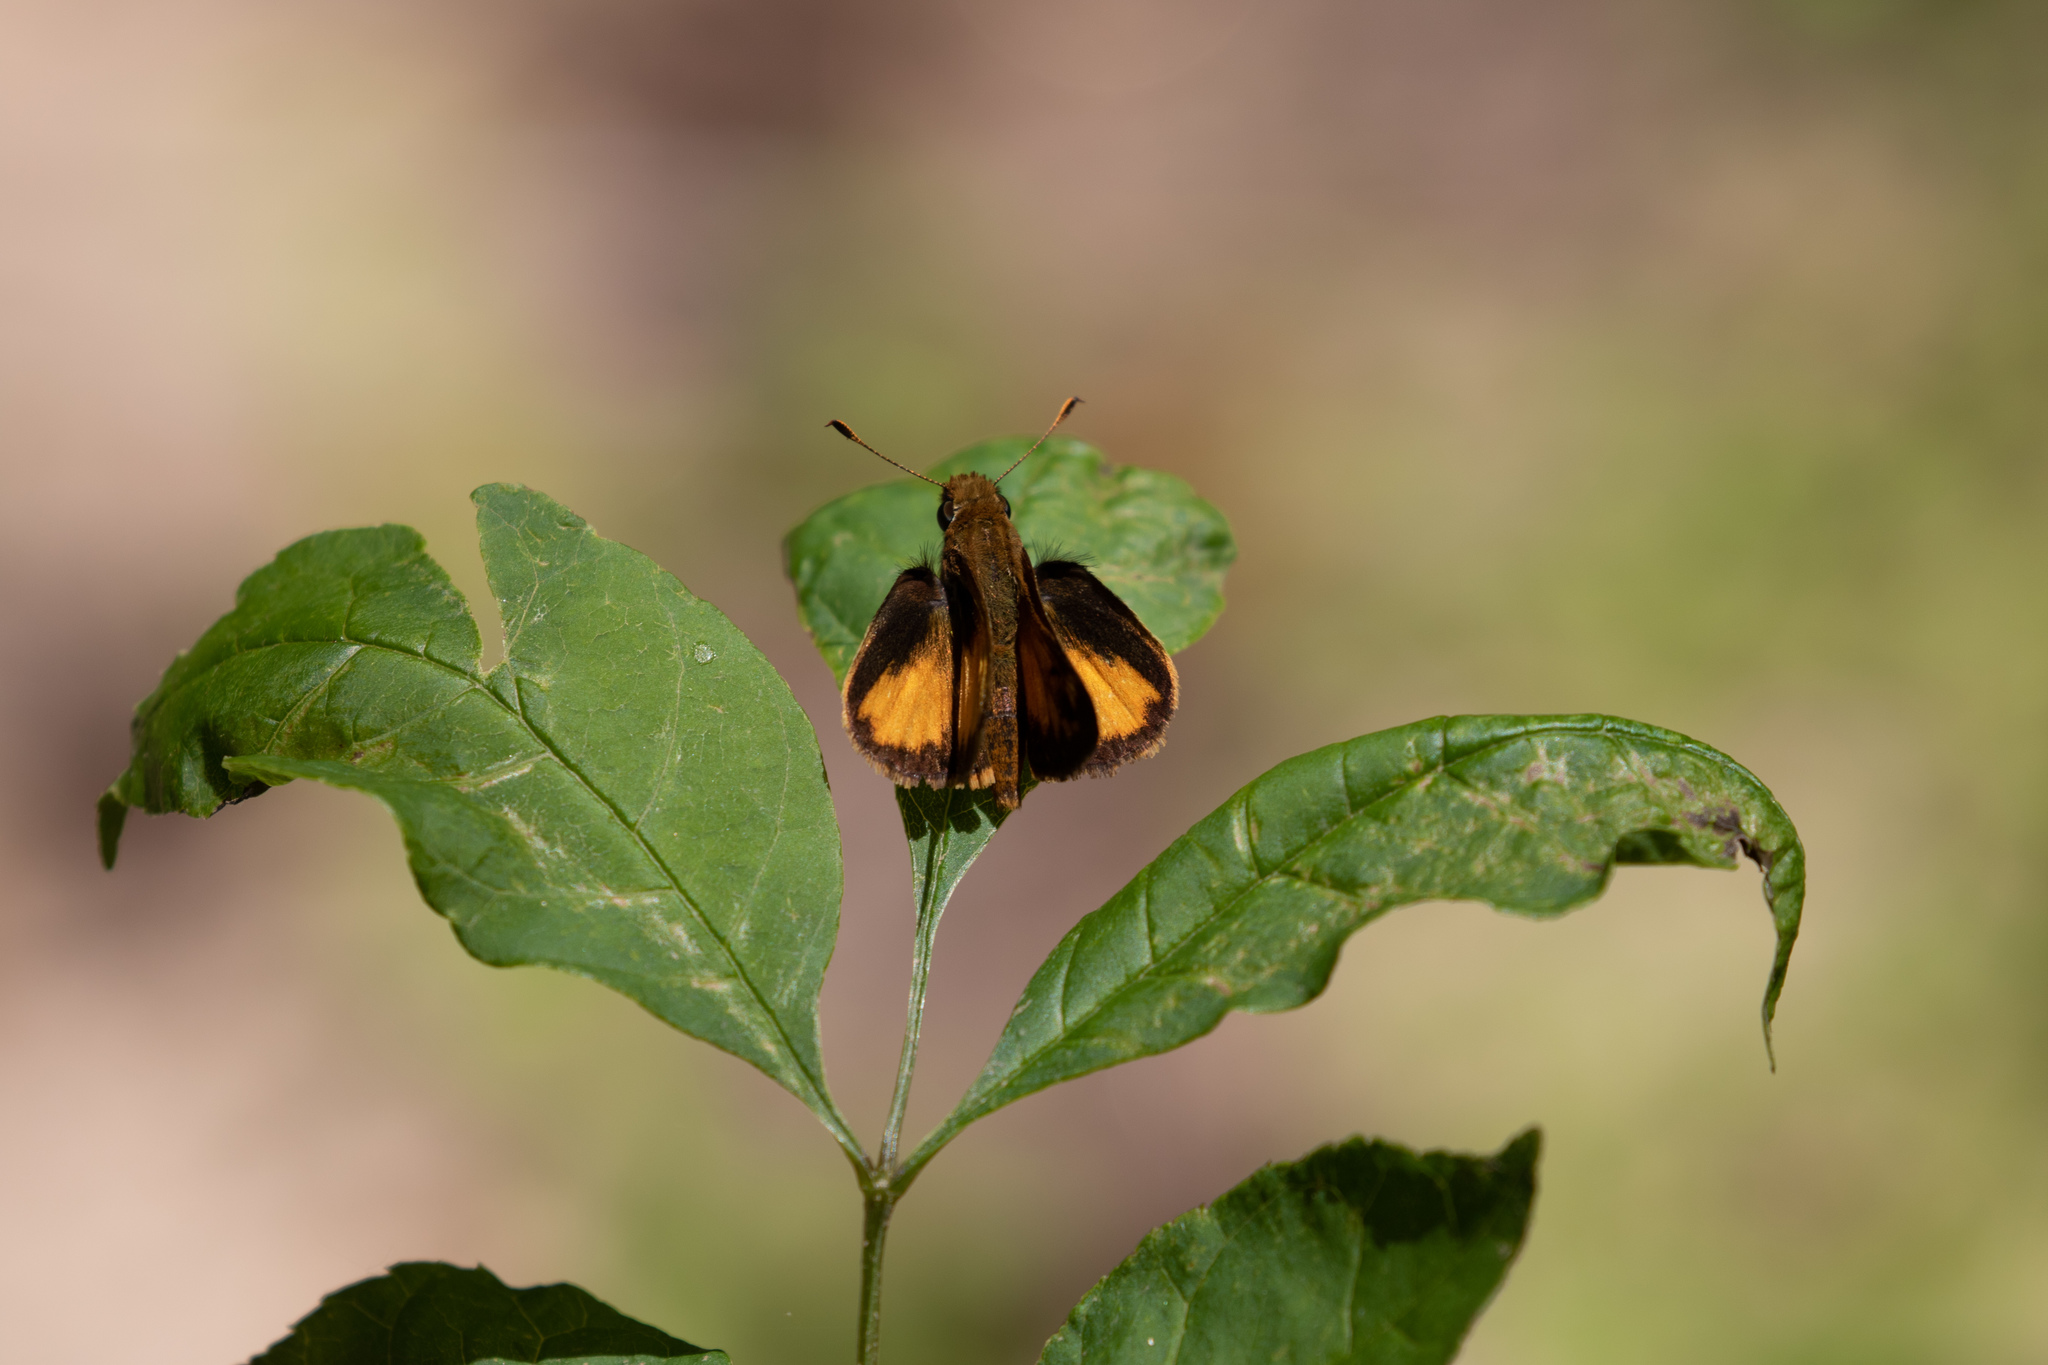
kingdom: Animalia
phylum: Arthropoda
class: Insecta
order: Lepidoptera
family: Hesperiidae
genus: Lon
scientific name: Lon zabulon
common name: Zabulon skipper
